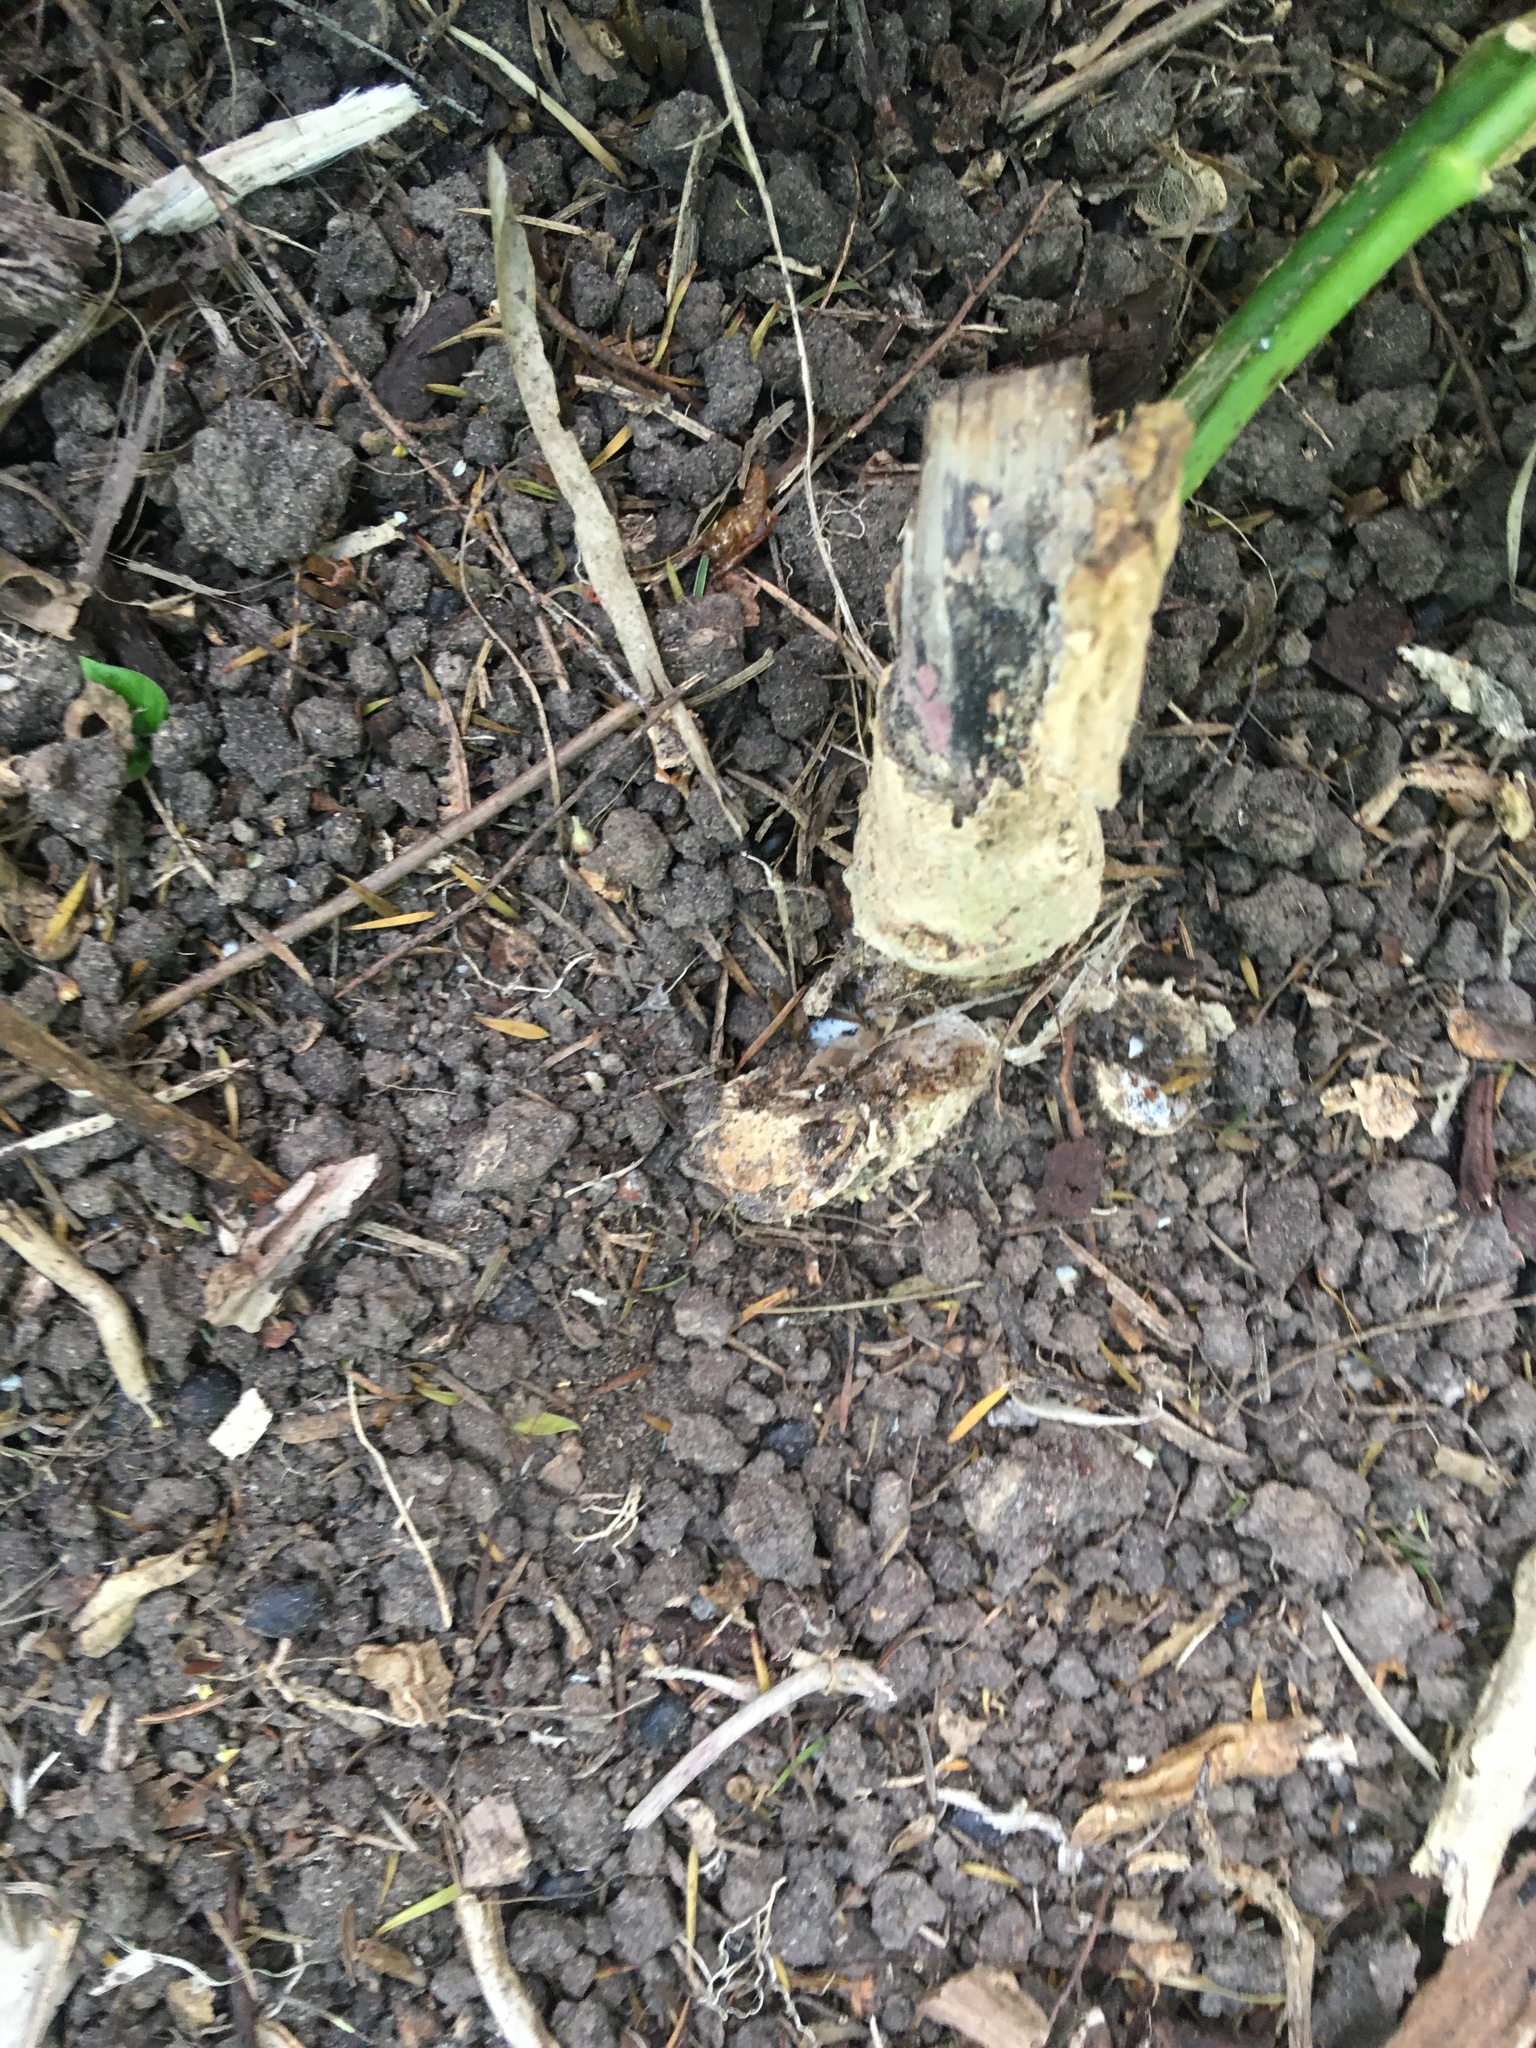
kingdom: Plantae
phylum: Tracheophyta
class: Magnoliopsida
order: Gentianales
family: Apocynaceae
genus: Araujia
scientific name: Araujia sericifera
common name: White bladderflower
